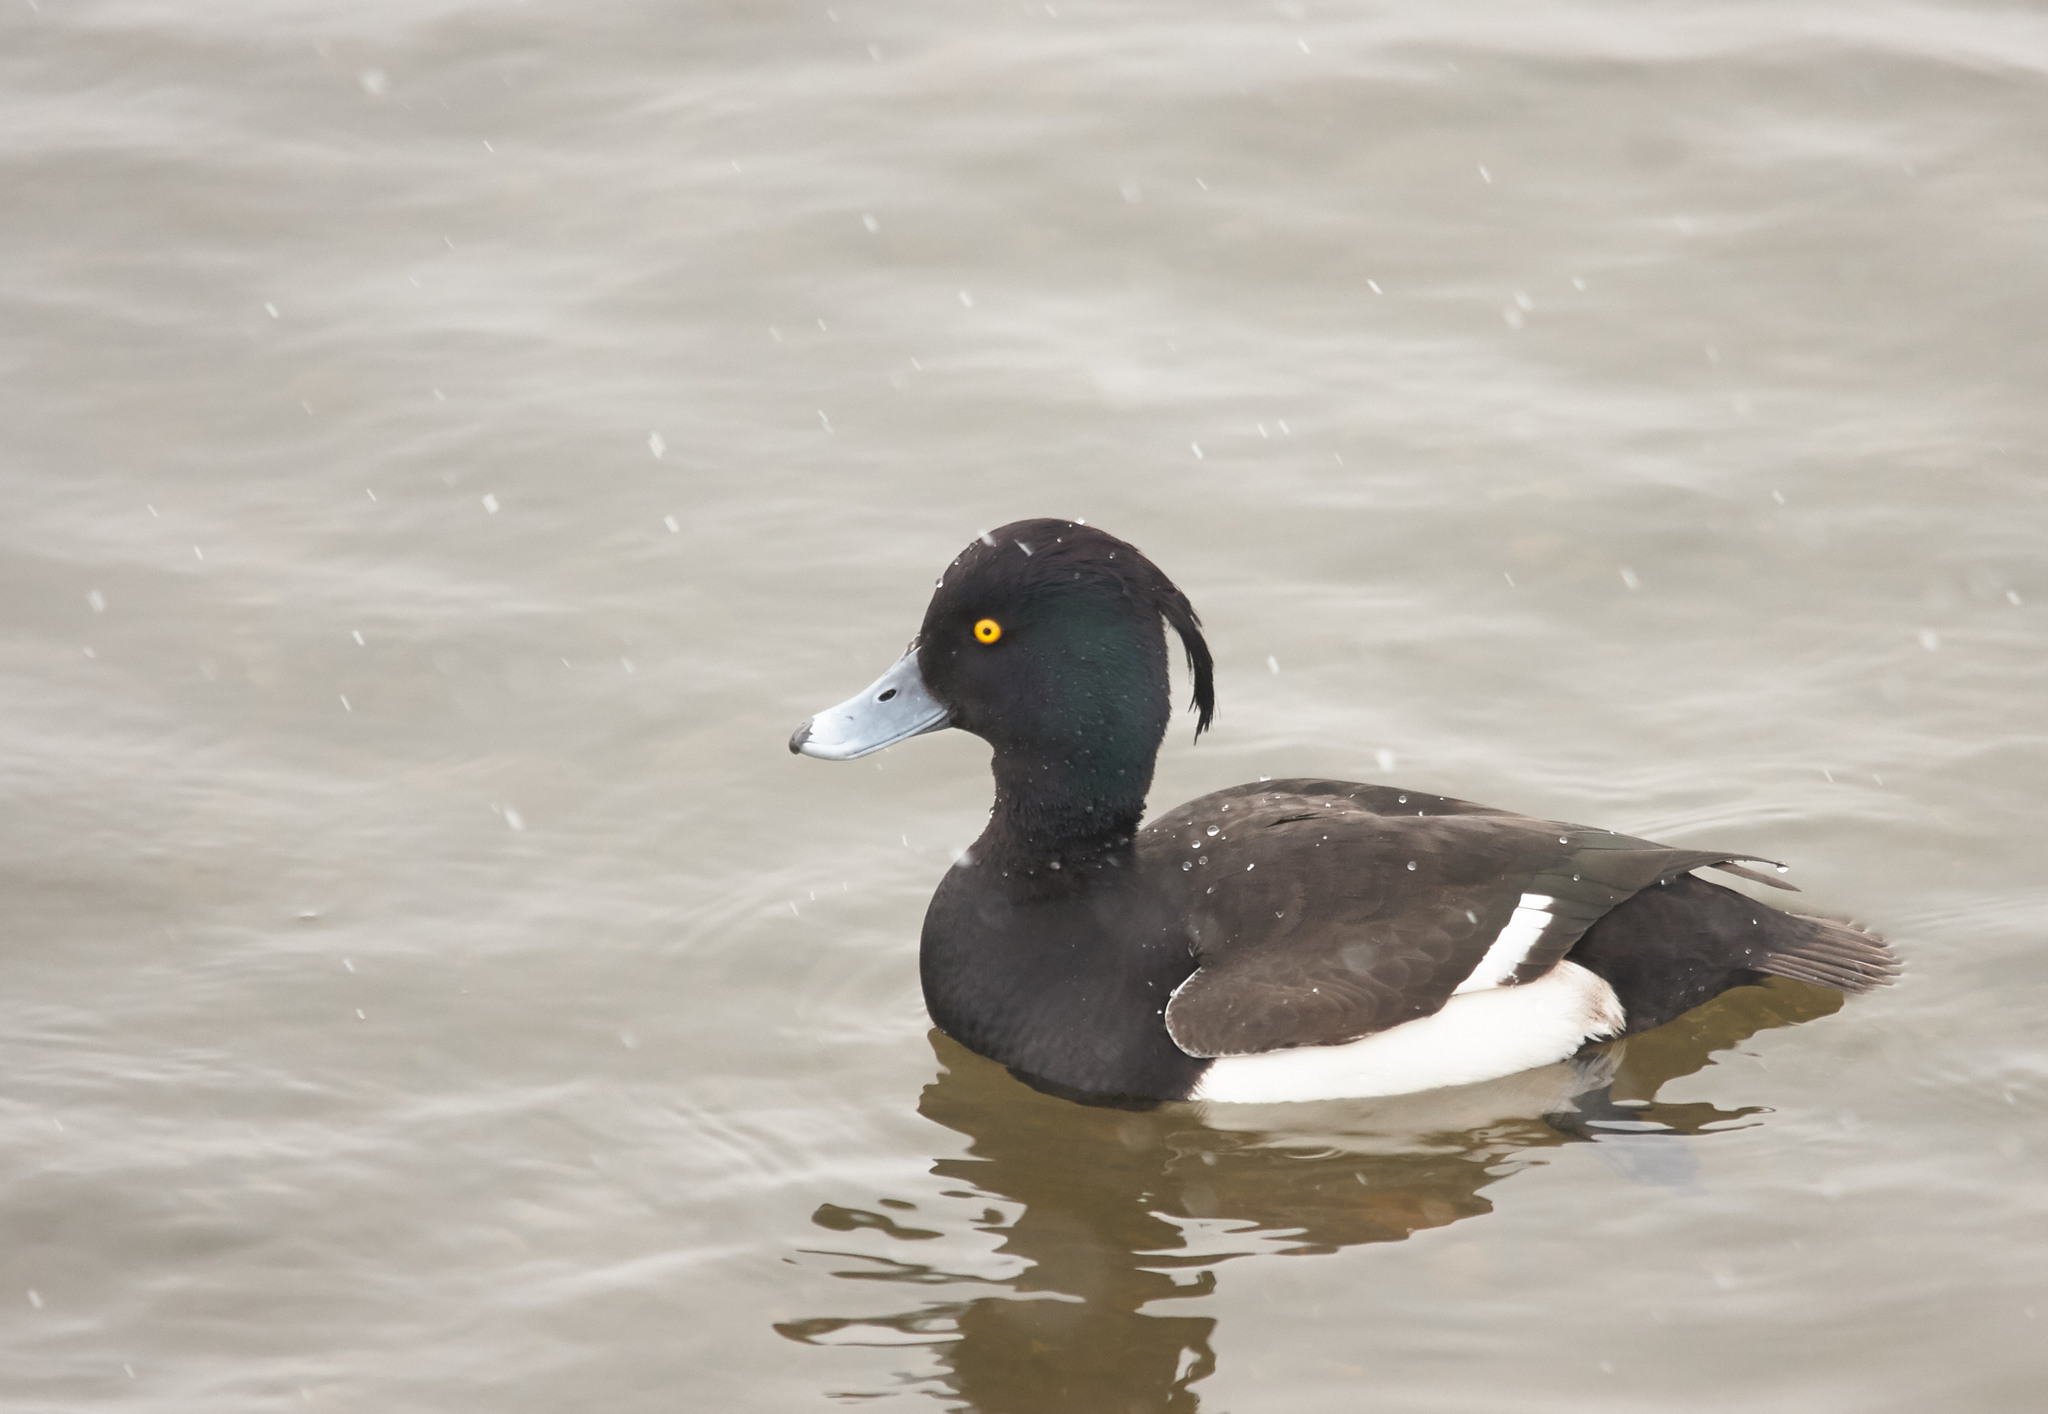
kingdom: Animalia
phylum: Chordata
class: Aves
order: Anseriformes
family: Anatidae
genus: Aythya
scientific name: Aythya fuligula
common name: Tufted duck
